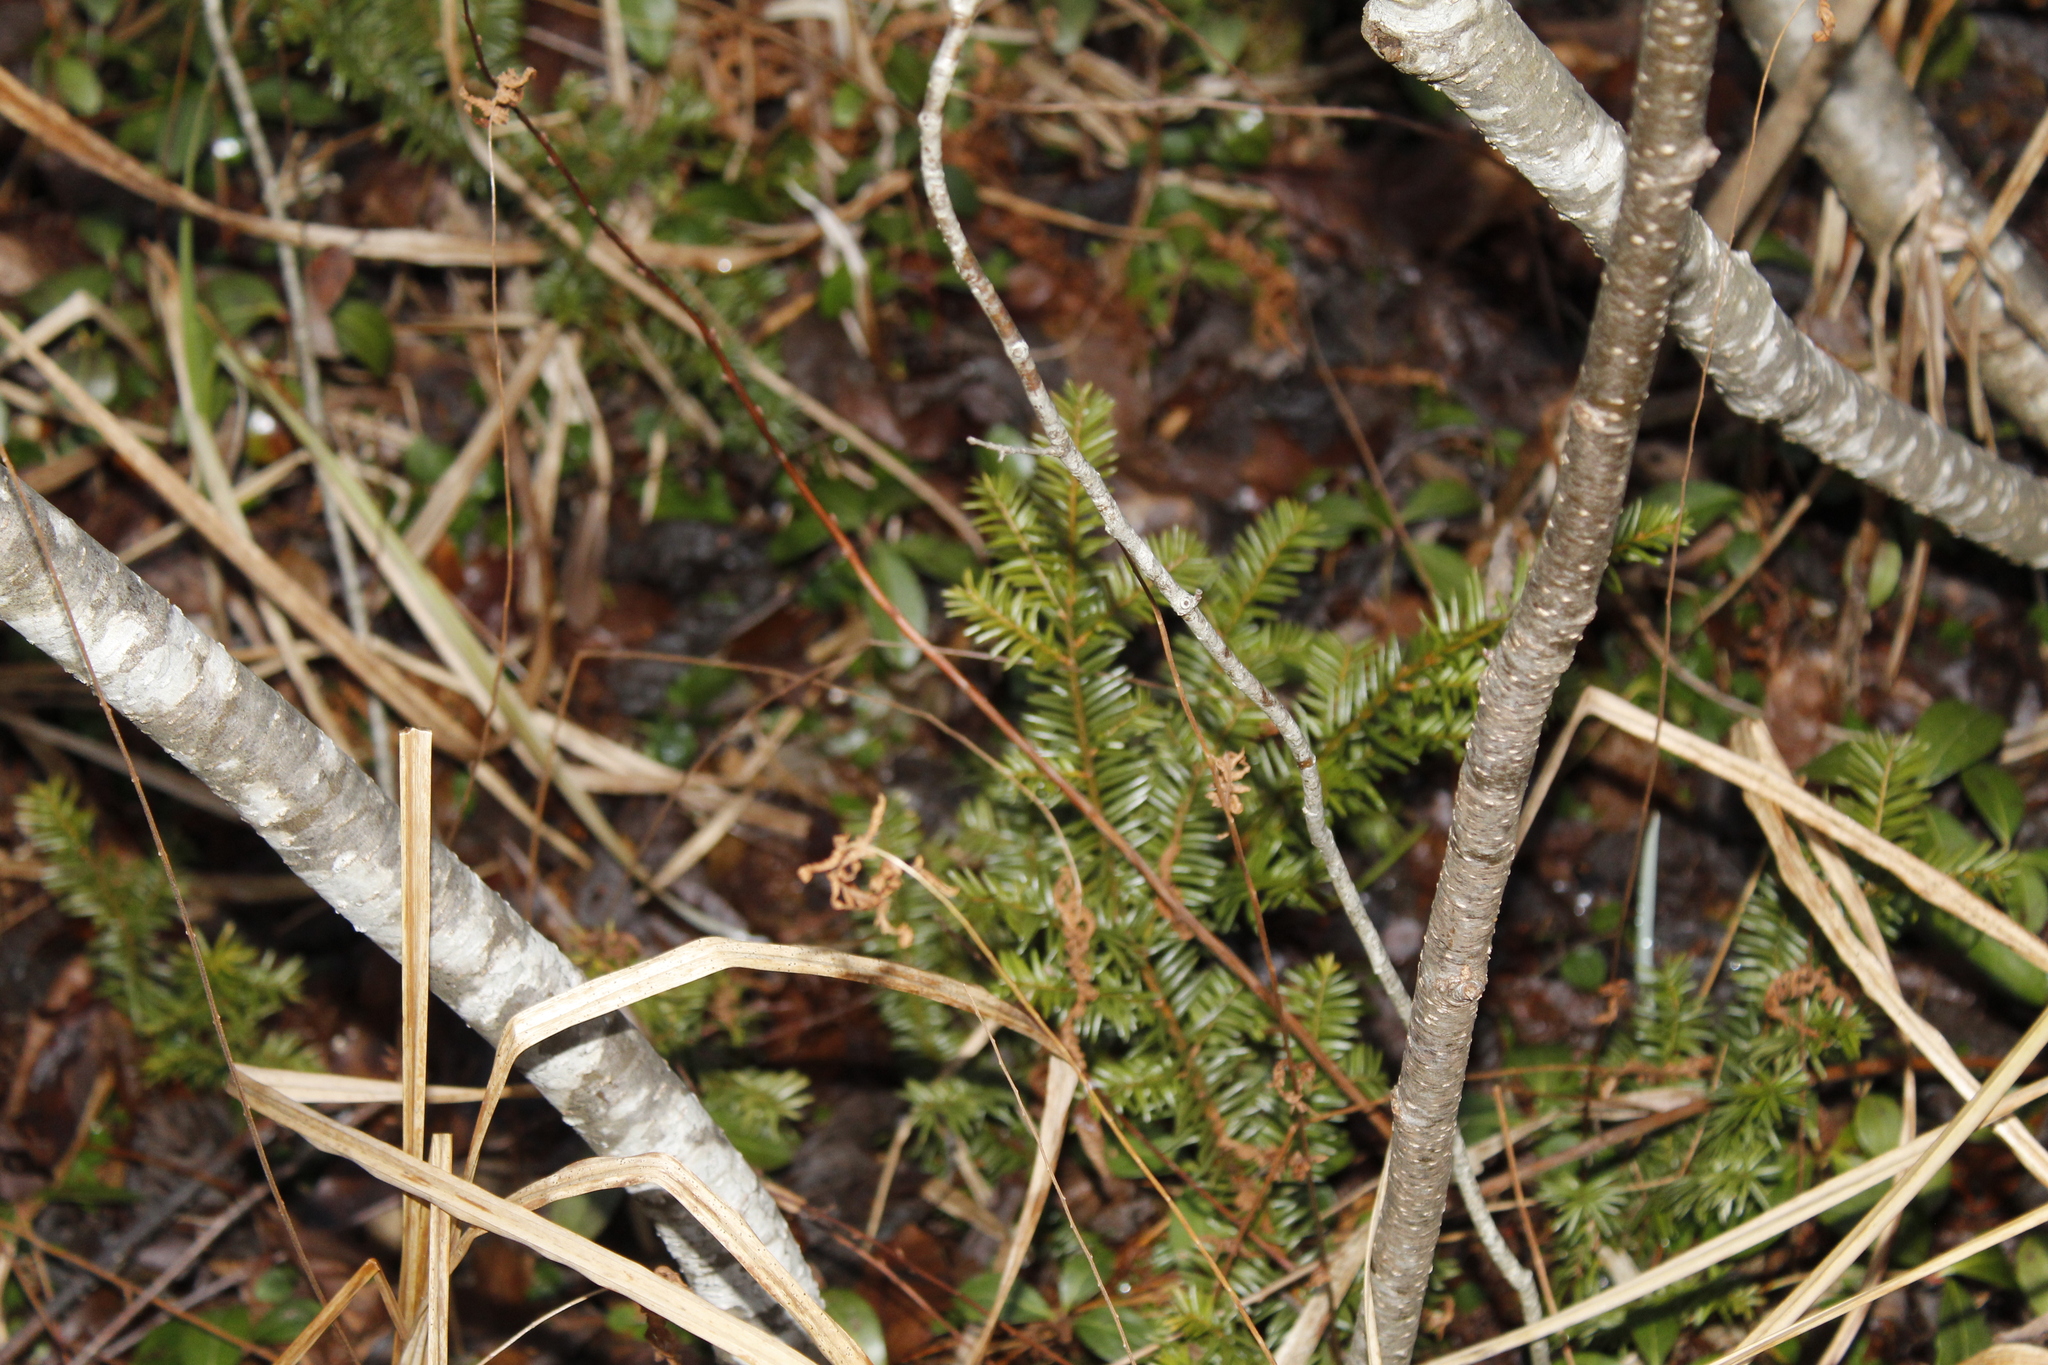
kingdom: Plantae
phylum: Tracheophyta
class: Pinopsida
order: Pinales
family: Taxaceae
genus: Taxus
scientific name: Taxus canadensis
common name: American yew
